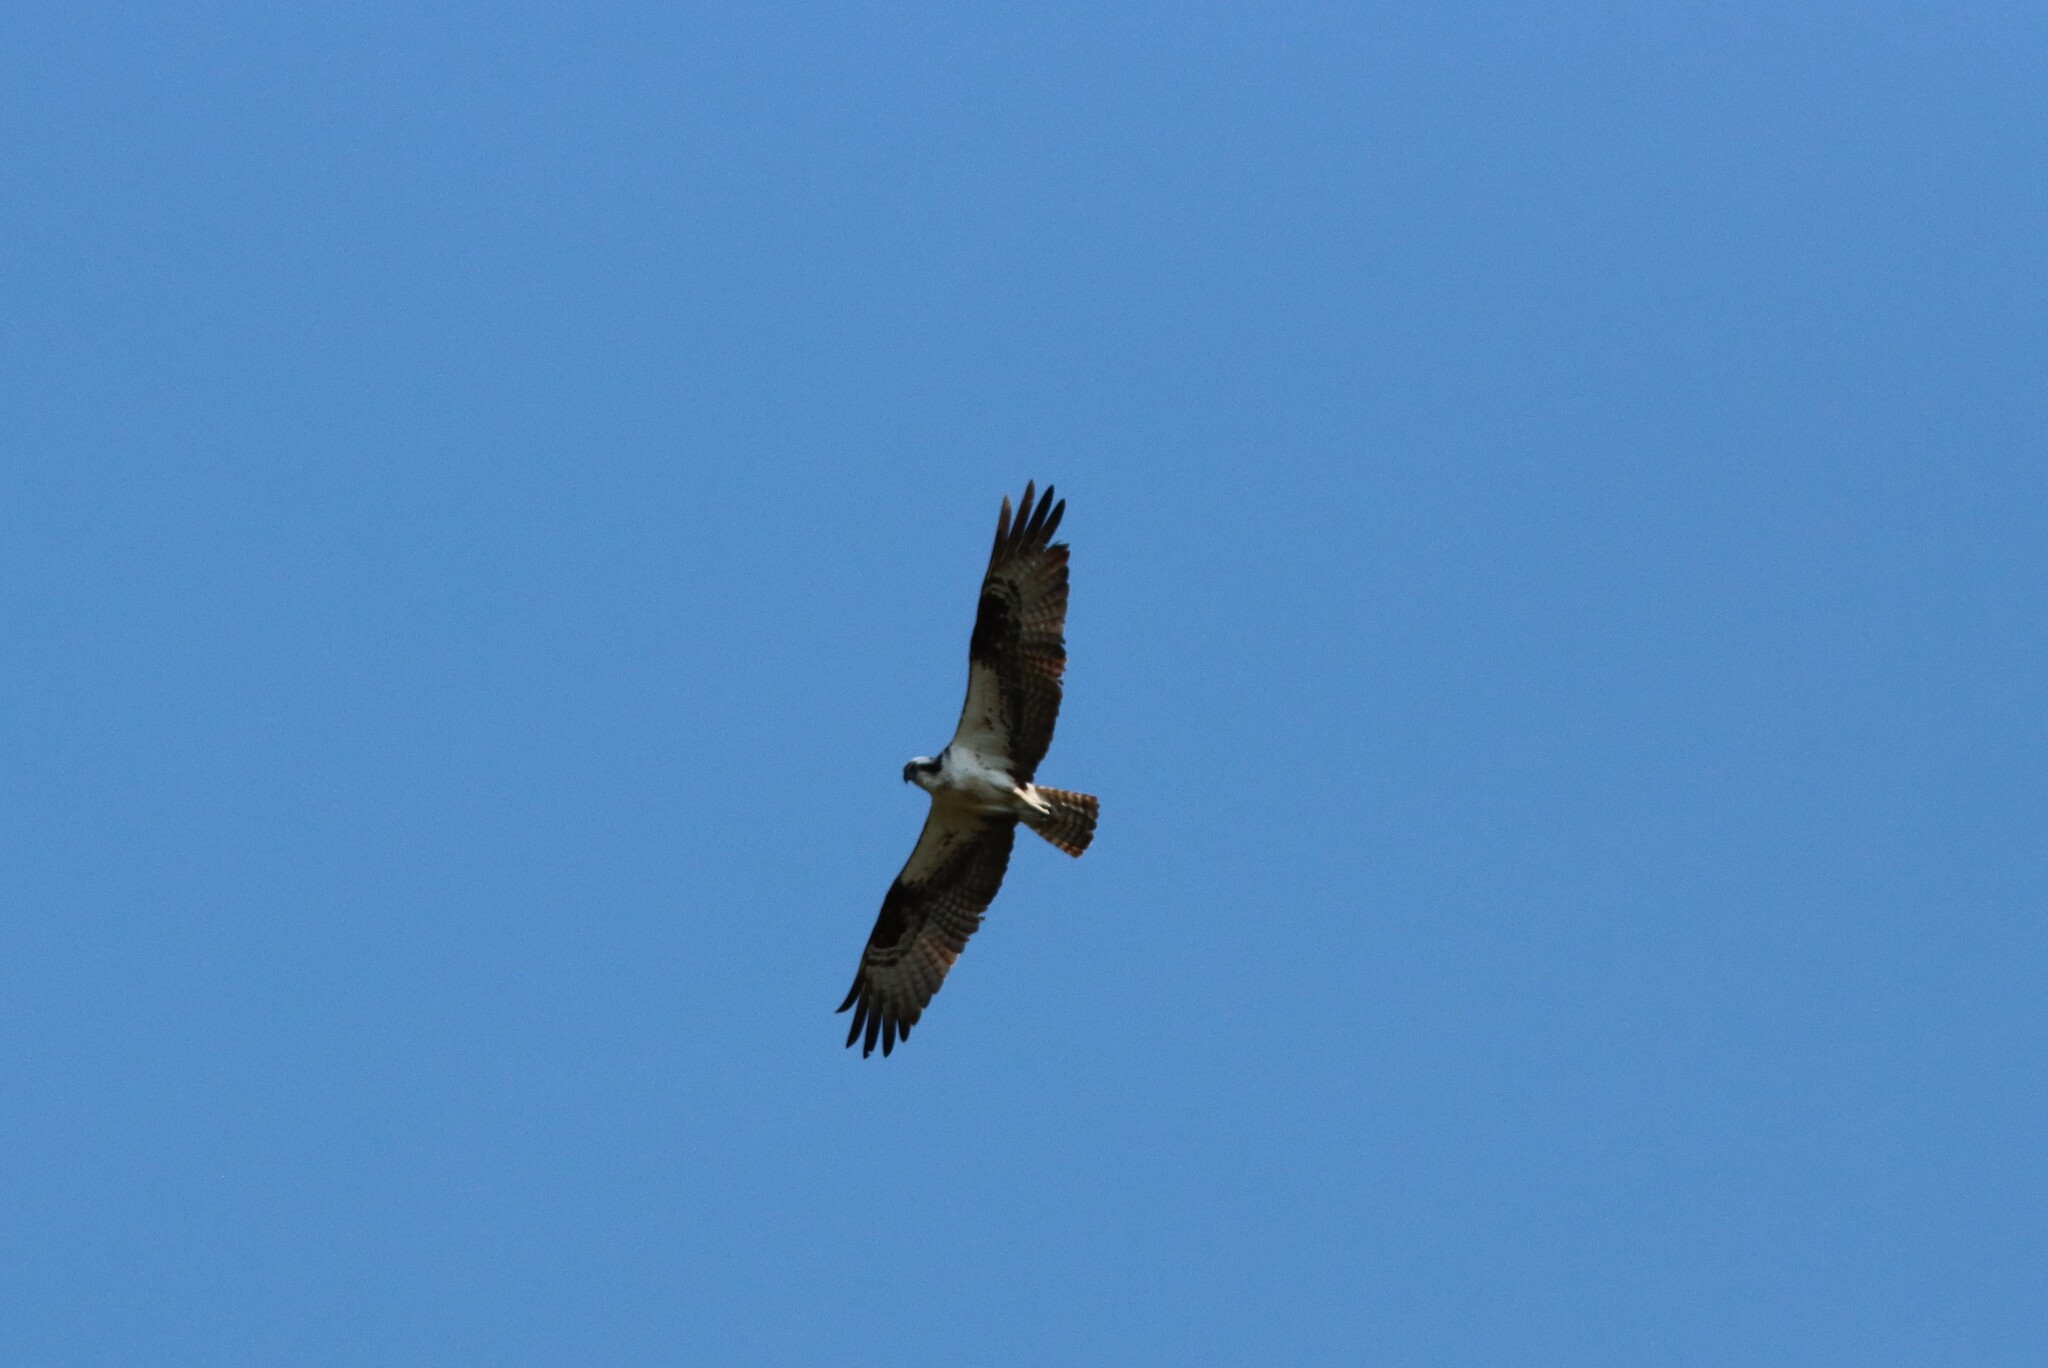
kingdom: Animalia
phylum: Chordata
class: Aves
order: Accipitriformes
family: Pandionidae
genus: Pandion
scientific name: Pandion haliaetus
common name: Osprey
